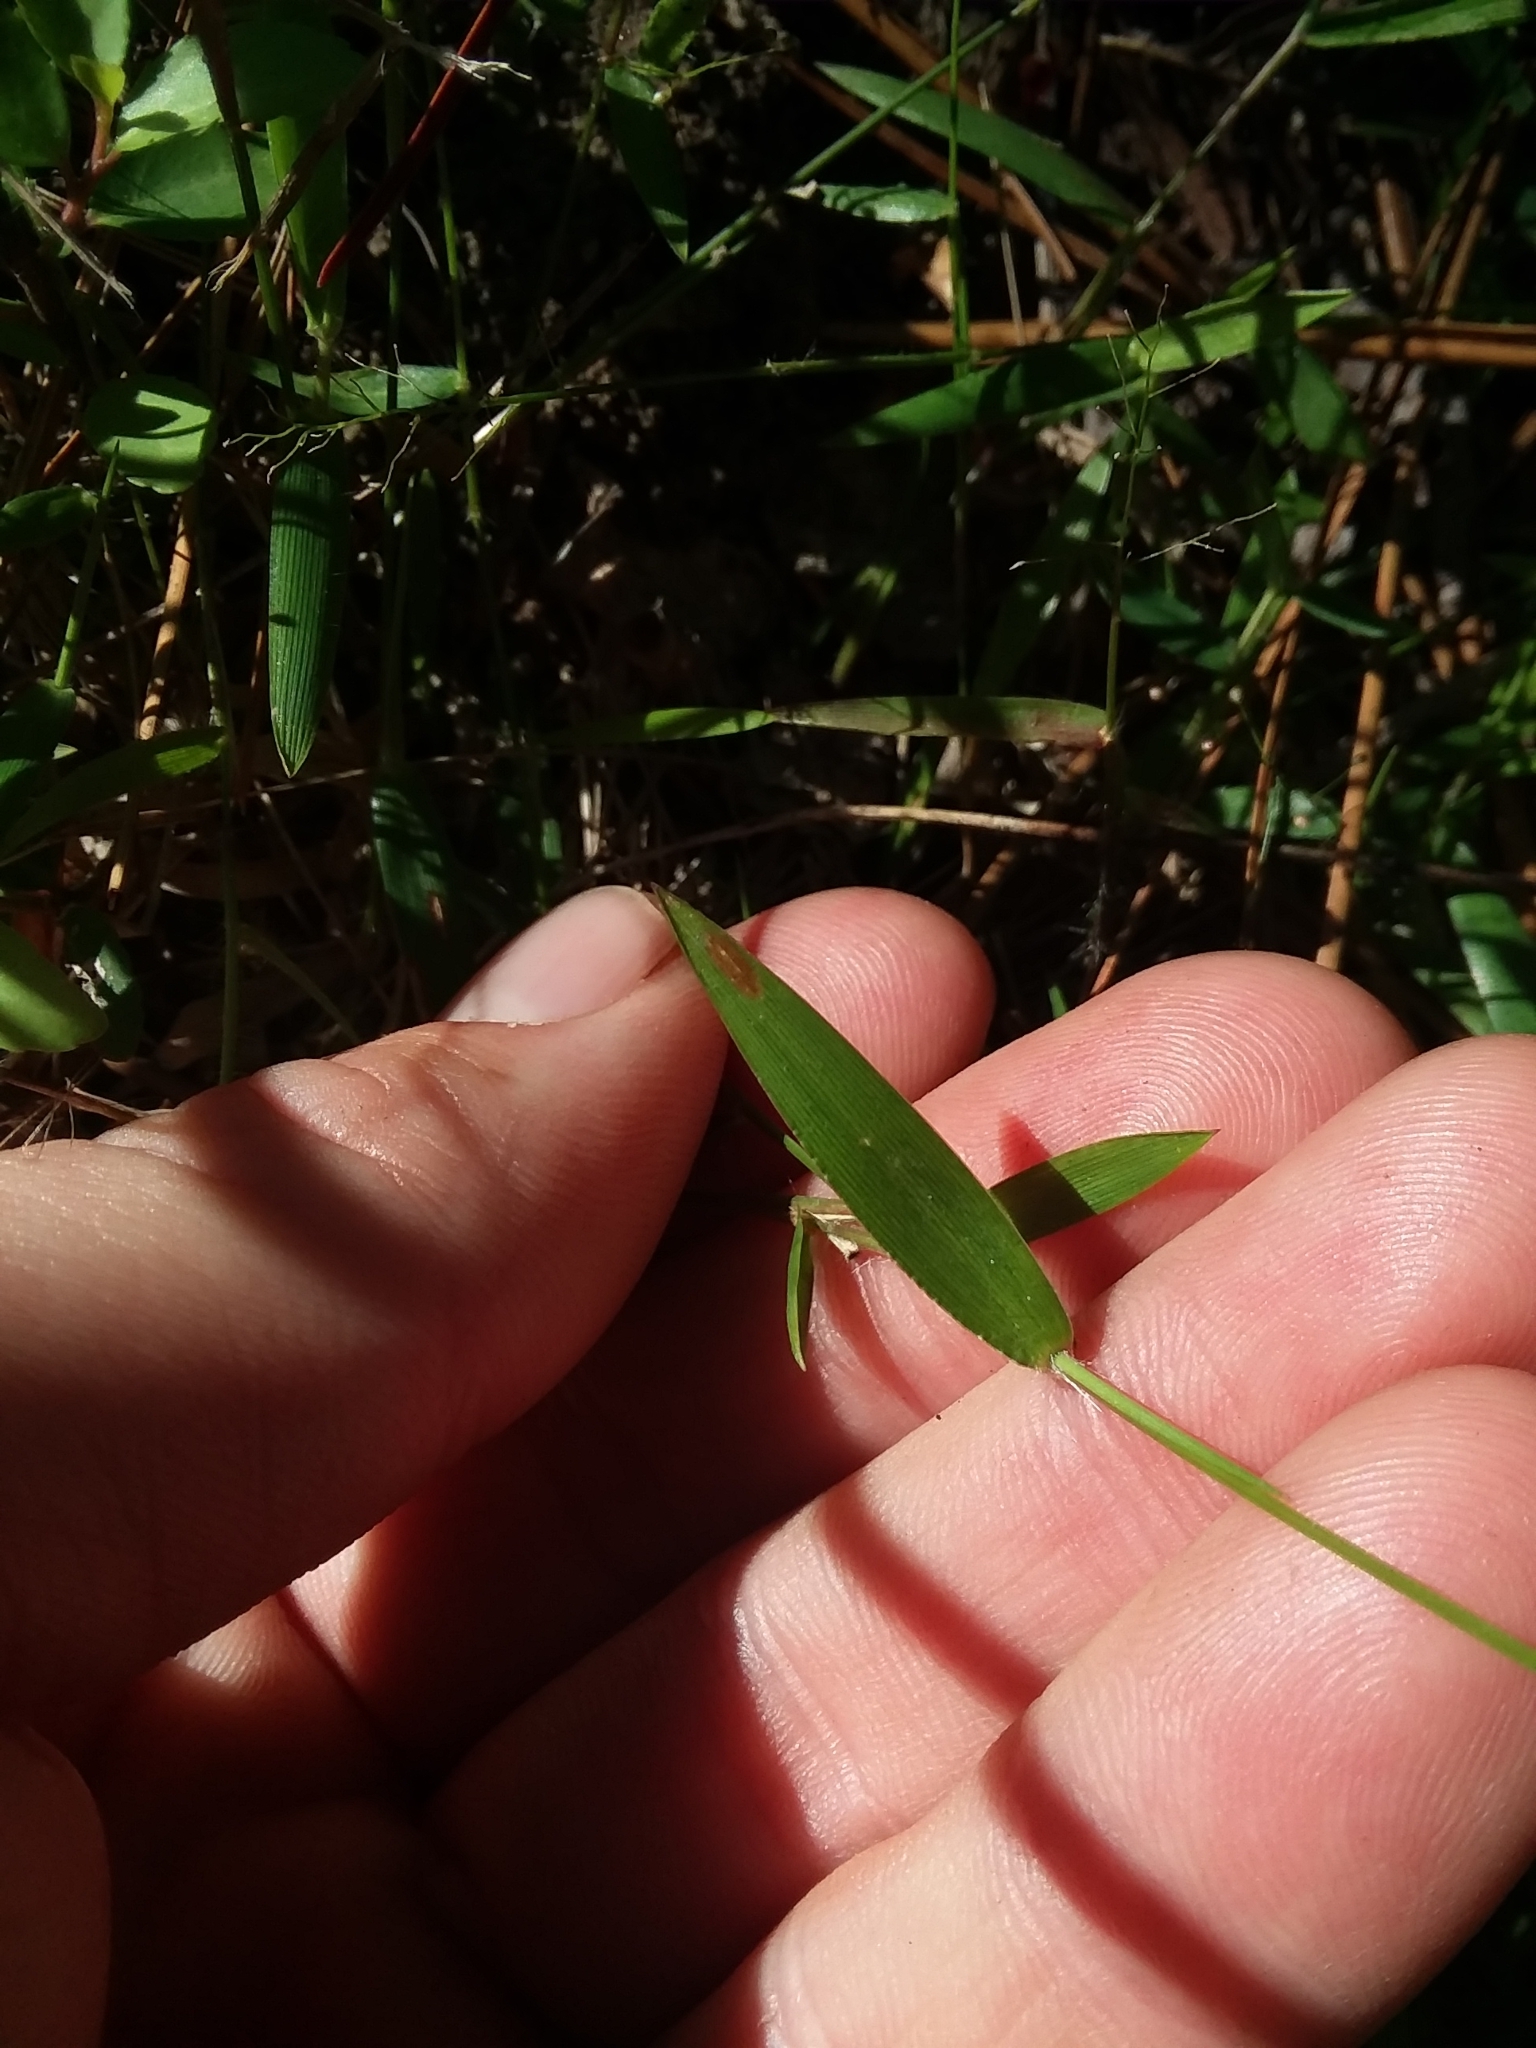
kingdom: Plantae
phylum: Tracheophyta
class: Liliopsida
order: Poales
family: Poaceae
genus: Dichanthelium
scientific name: Dichanthelium curtifolium
